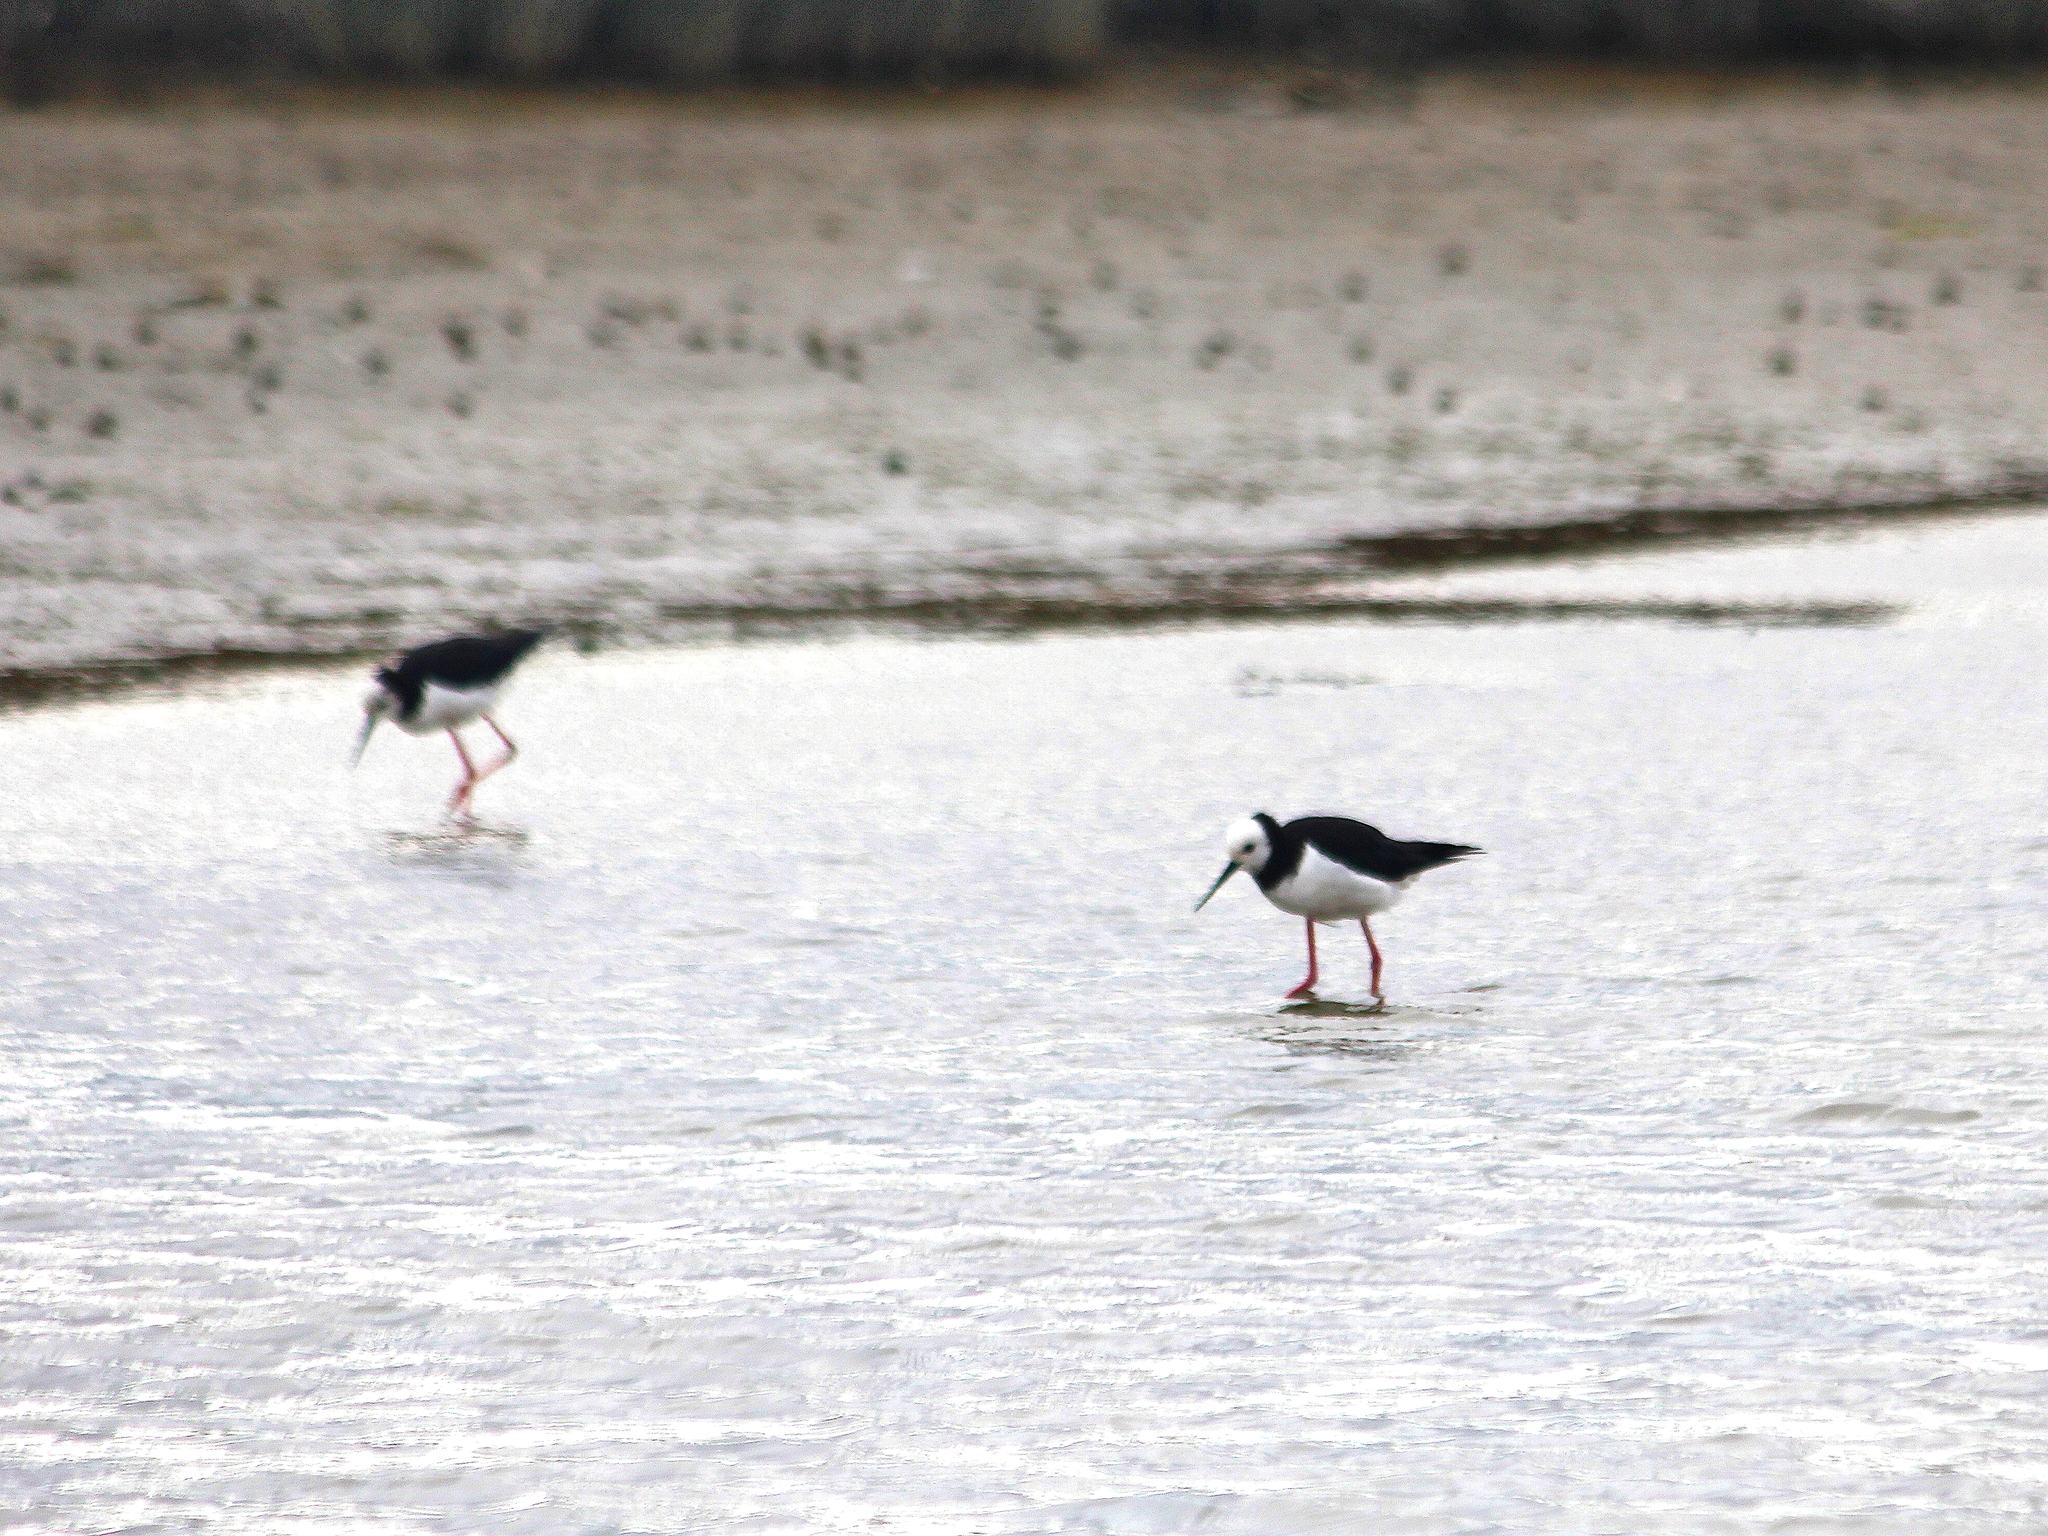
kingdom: Animalia
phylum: Chordata
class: Aves
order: Charadriiformes
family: Recurvirostridae
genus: Himantopus
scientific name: Himantopus
